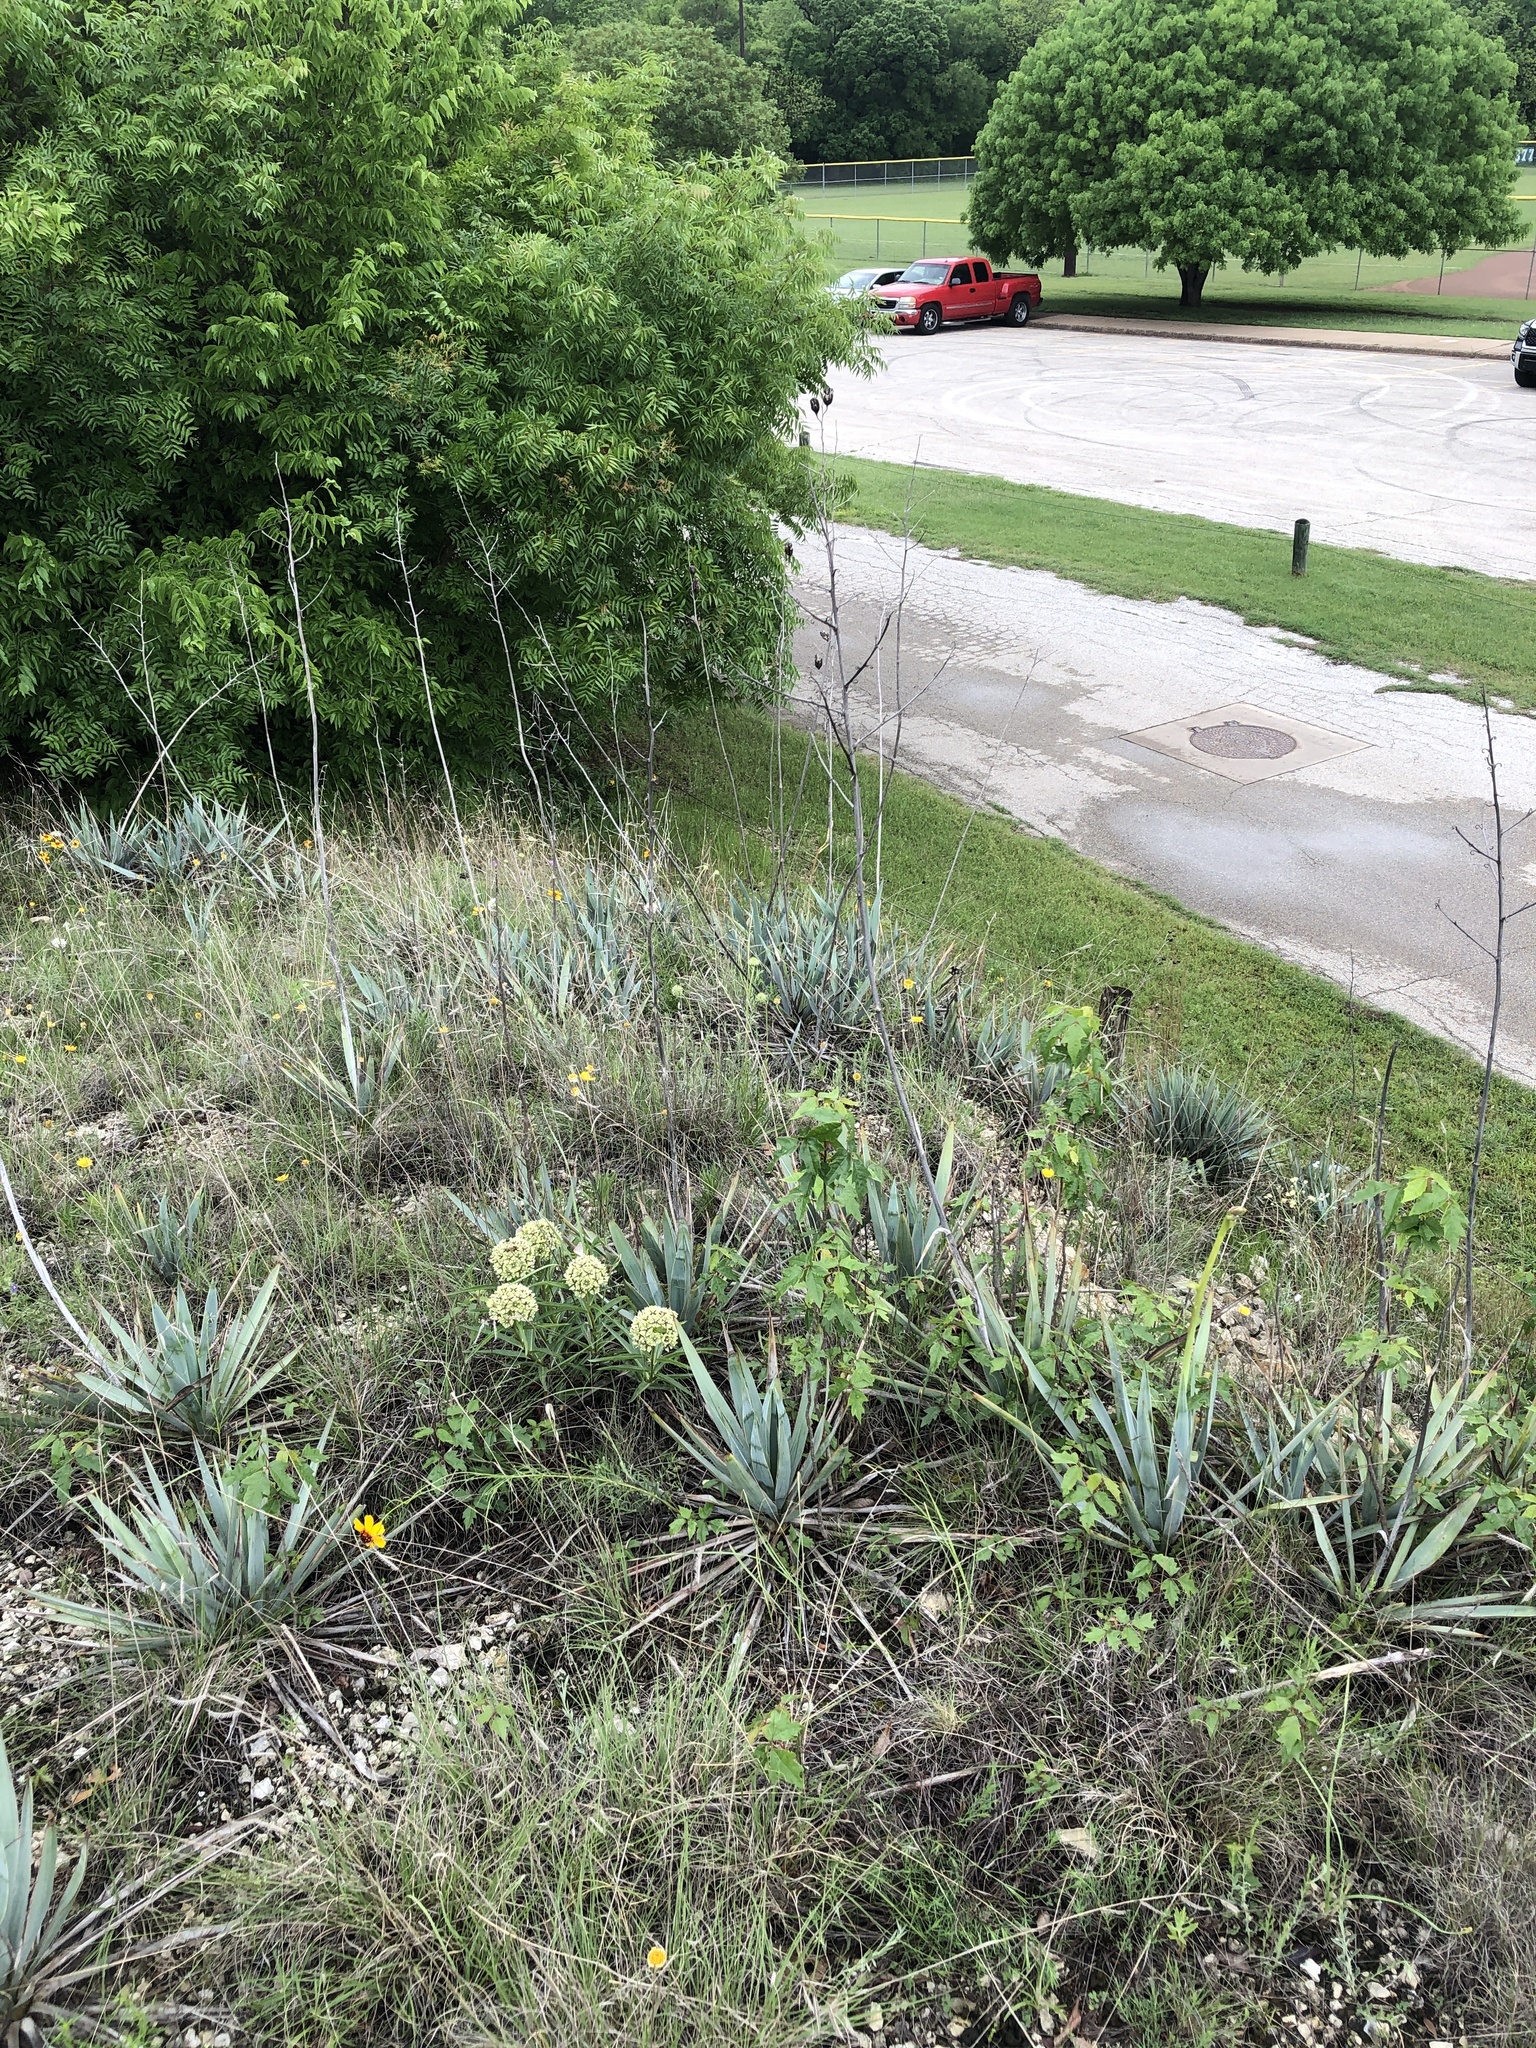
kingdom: Plantae
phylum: Tracheophyta
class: Liliopsida
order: Asparagales
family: Asparagaceae
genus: Yucca
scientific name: Yucca pallida
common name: Pale leaf yucca
